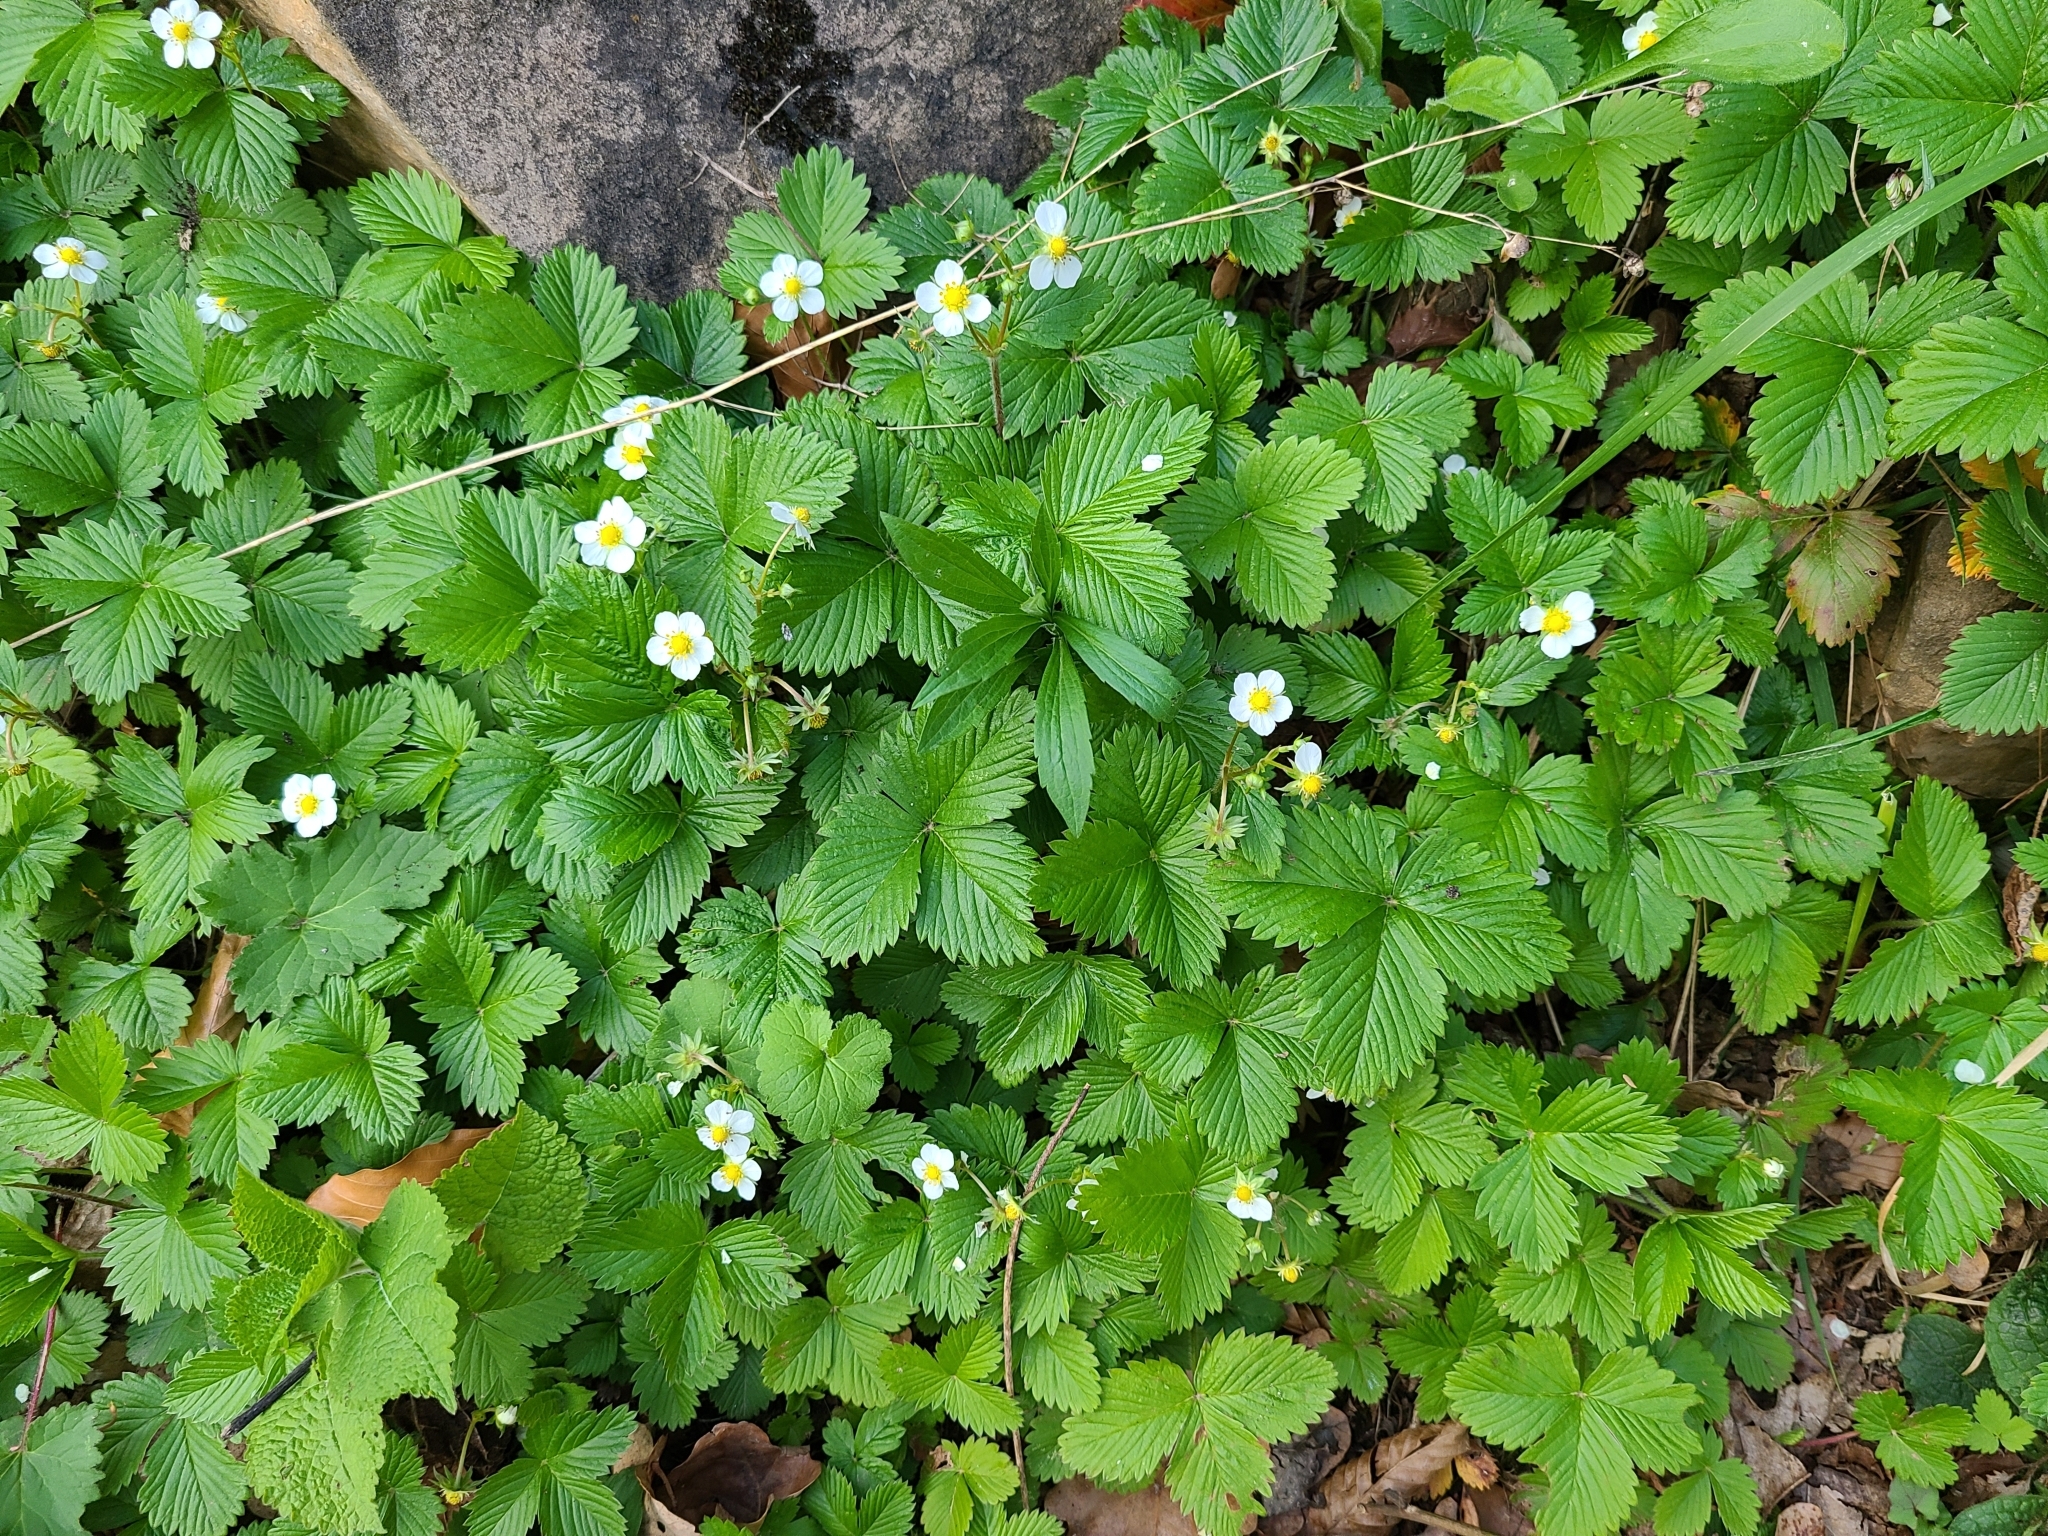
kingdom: Plantae
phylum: Tracheophyta
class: Magnoliopsida
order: Rosales
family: Rosaceae
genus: Fragaria
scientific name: Fragaria vesca
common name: Wild strawberry
